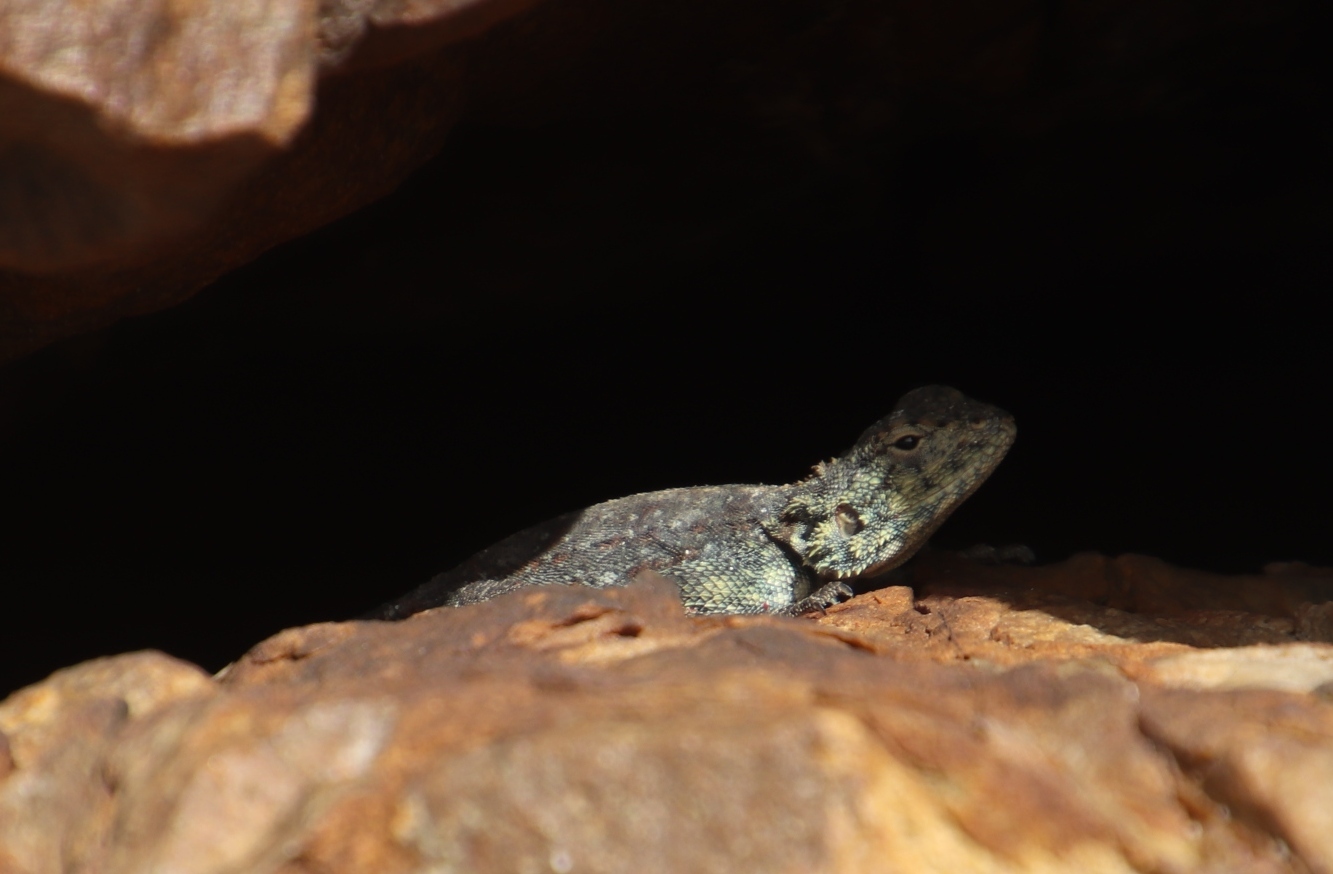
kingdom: Animalia
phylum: Chordata
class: Squamata
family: Agamidae
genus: Agama
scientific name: Agama atra
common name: Southern african rock agama
